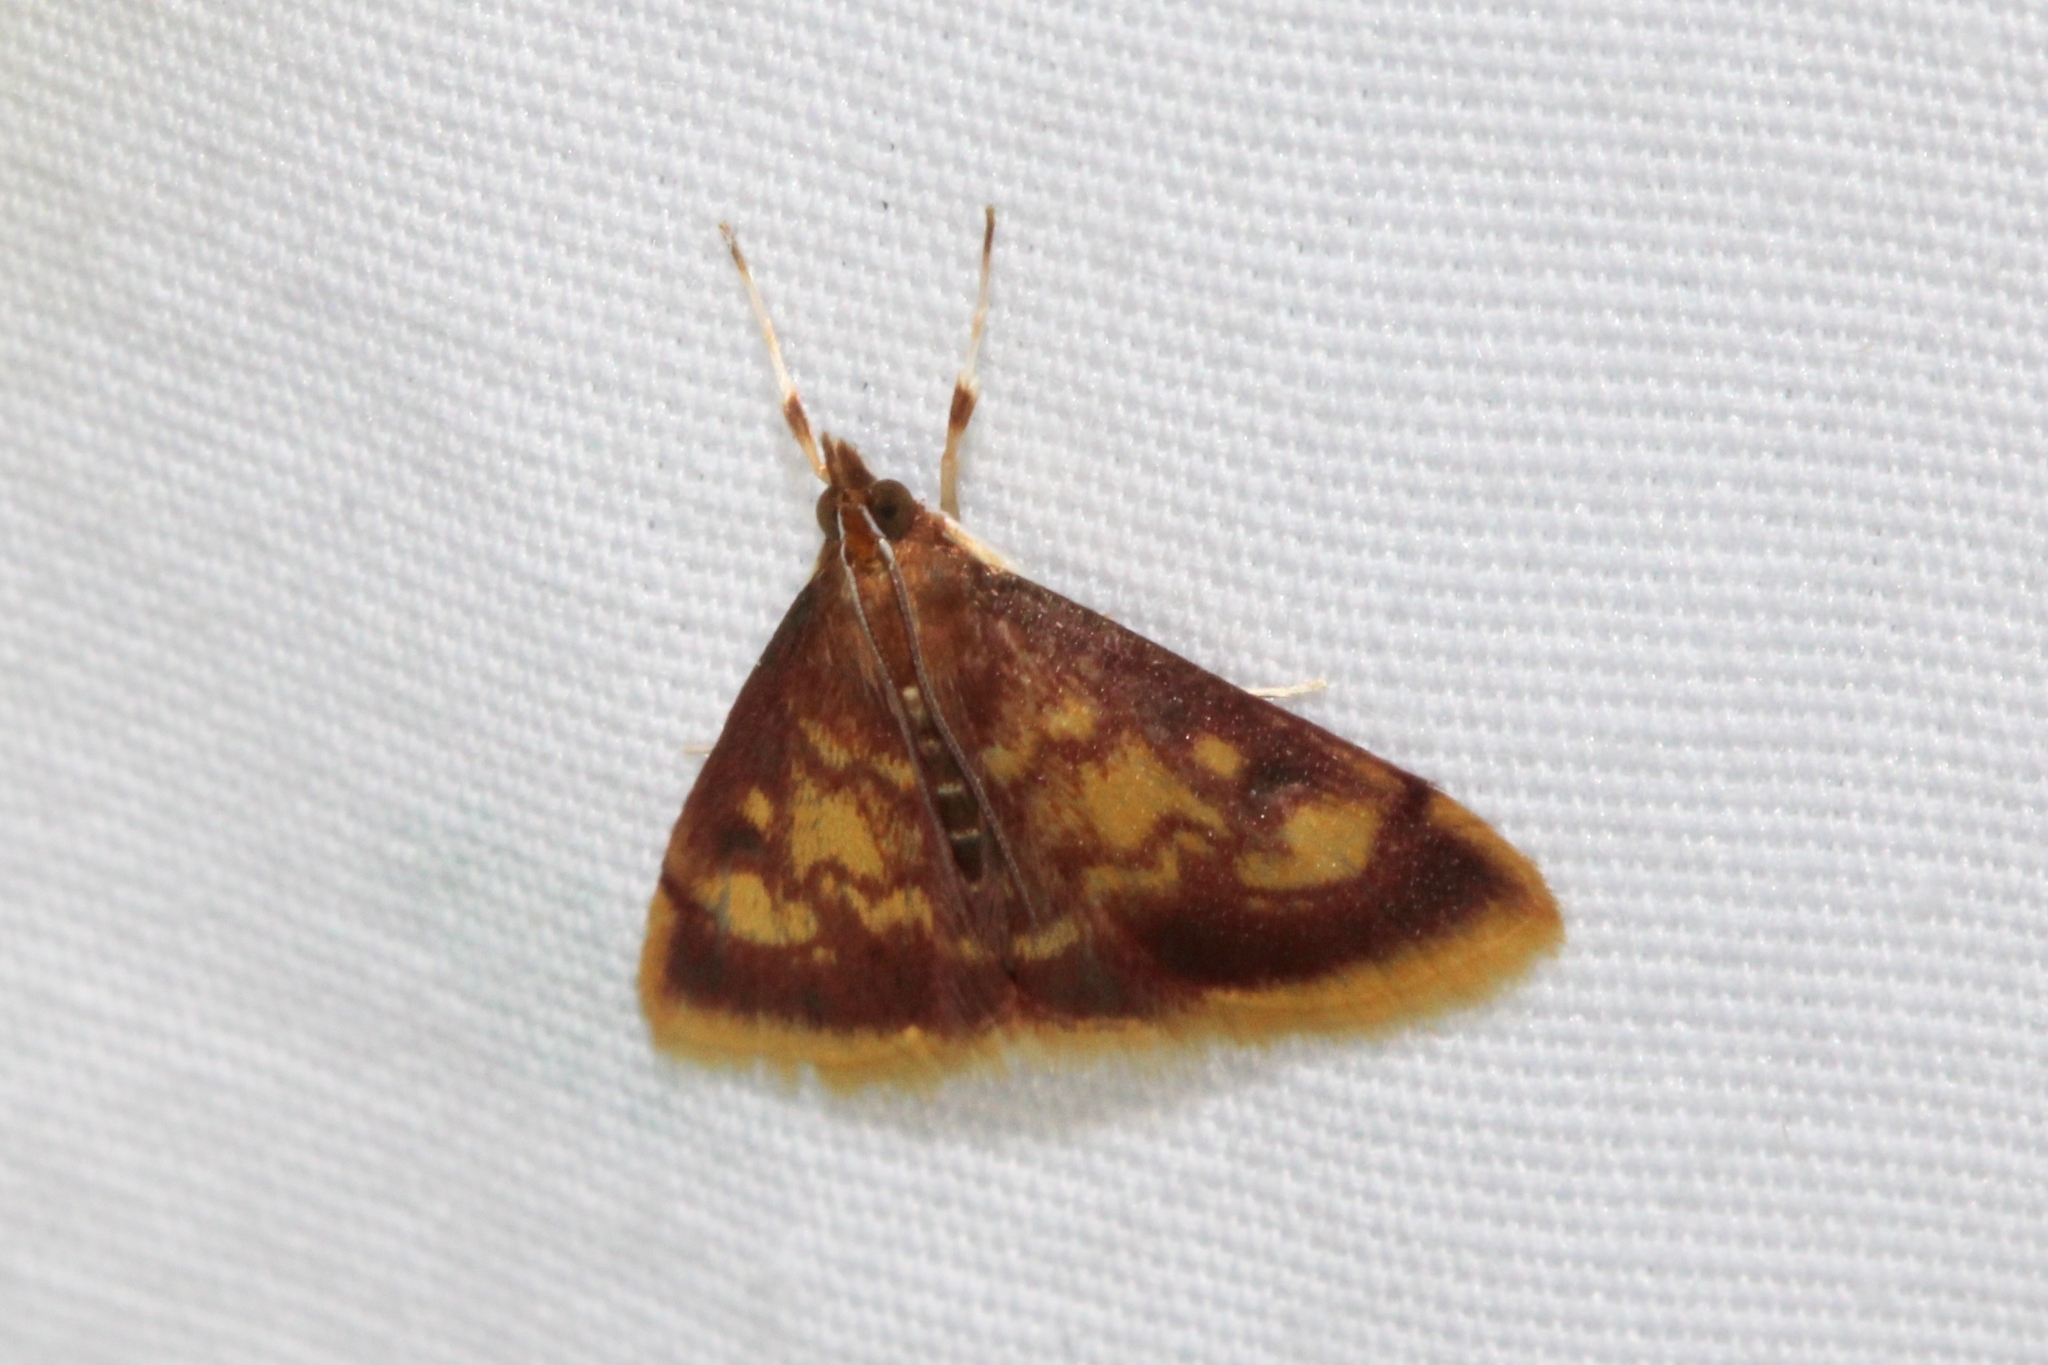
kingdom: Animalia
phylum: Arthropoda
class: Insecta
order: Lepidoptera
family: Crambidae
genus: Pyrausta
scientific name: Pyrausta acrionalis
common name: Mint-loving pyrausta moth
